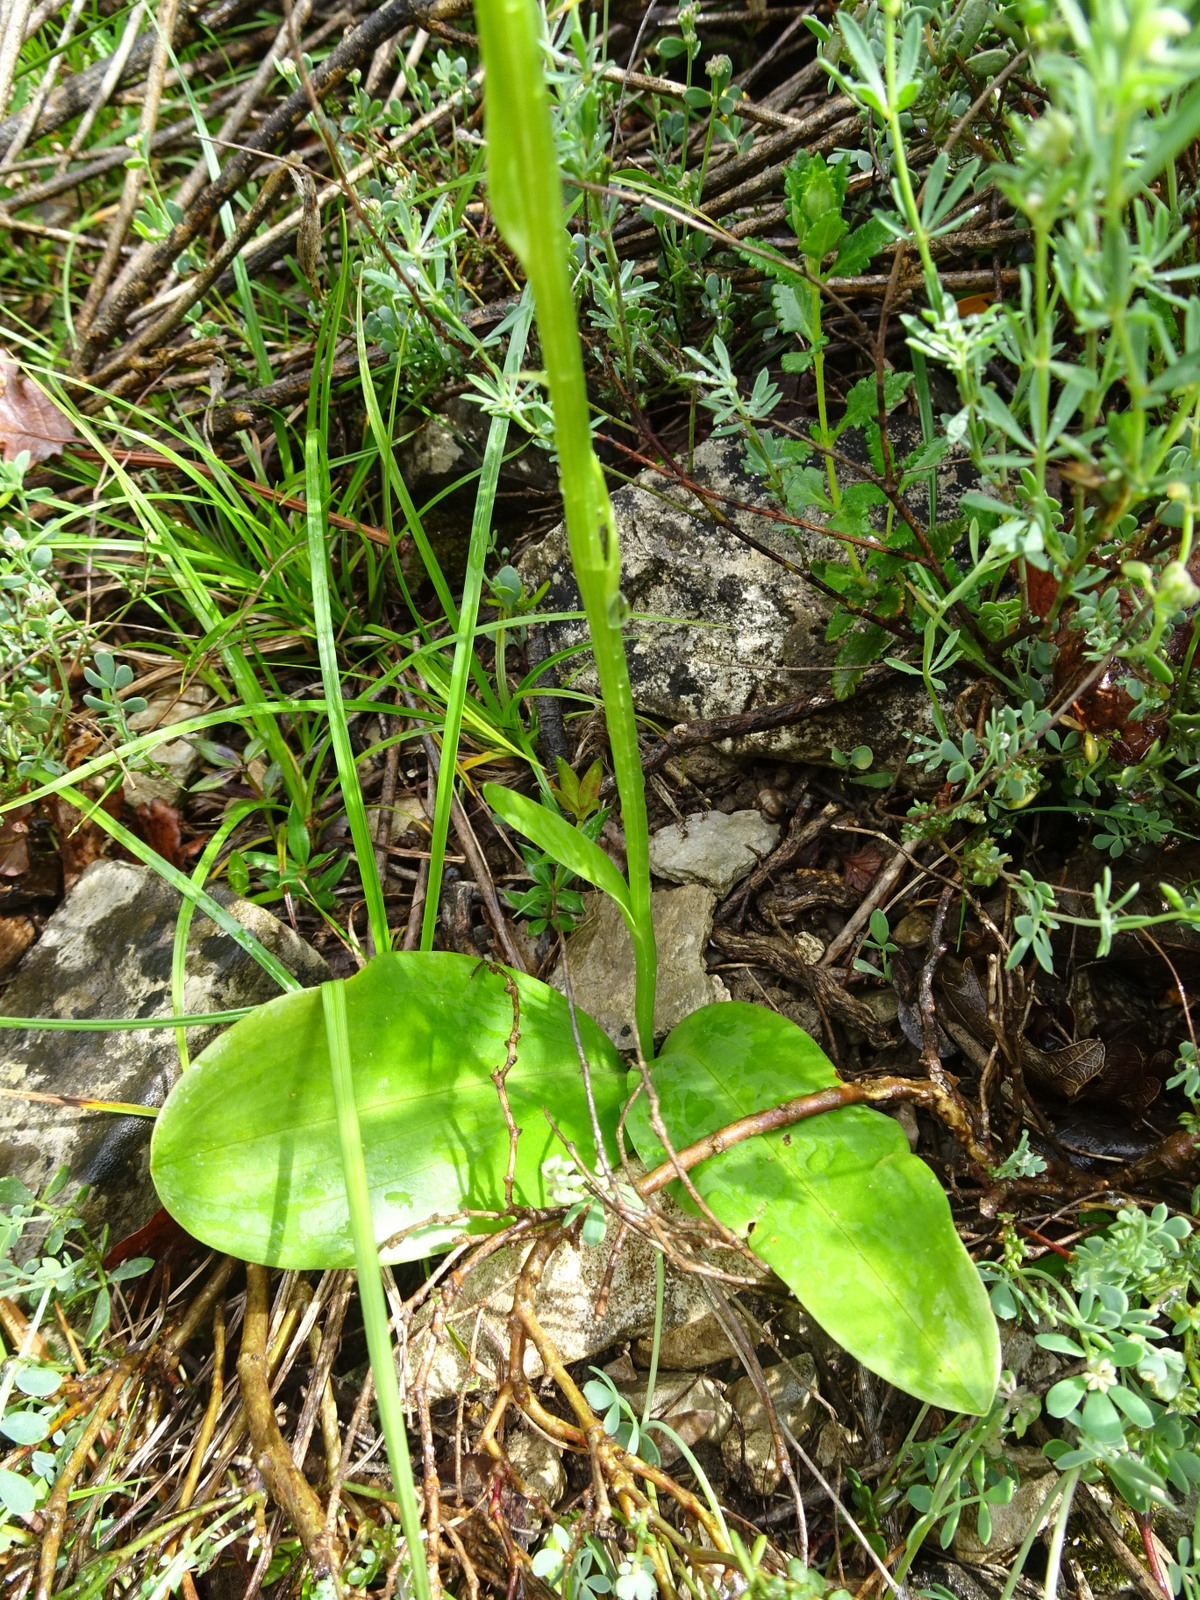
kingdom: Plantae
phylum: Tracheophyta
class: Liliopsida
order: Asparagales
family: Orchidaceae
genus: Platanthera
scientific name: Platanthera bifolia
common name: Lesser butterfly-orchid
